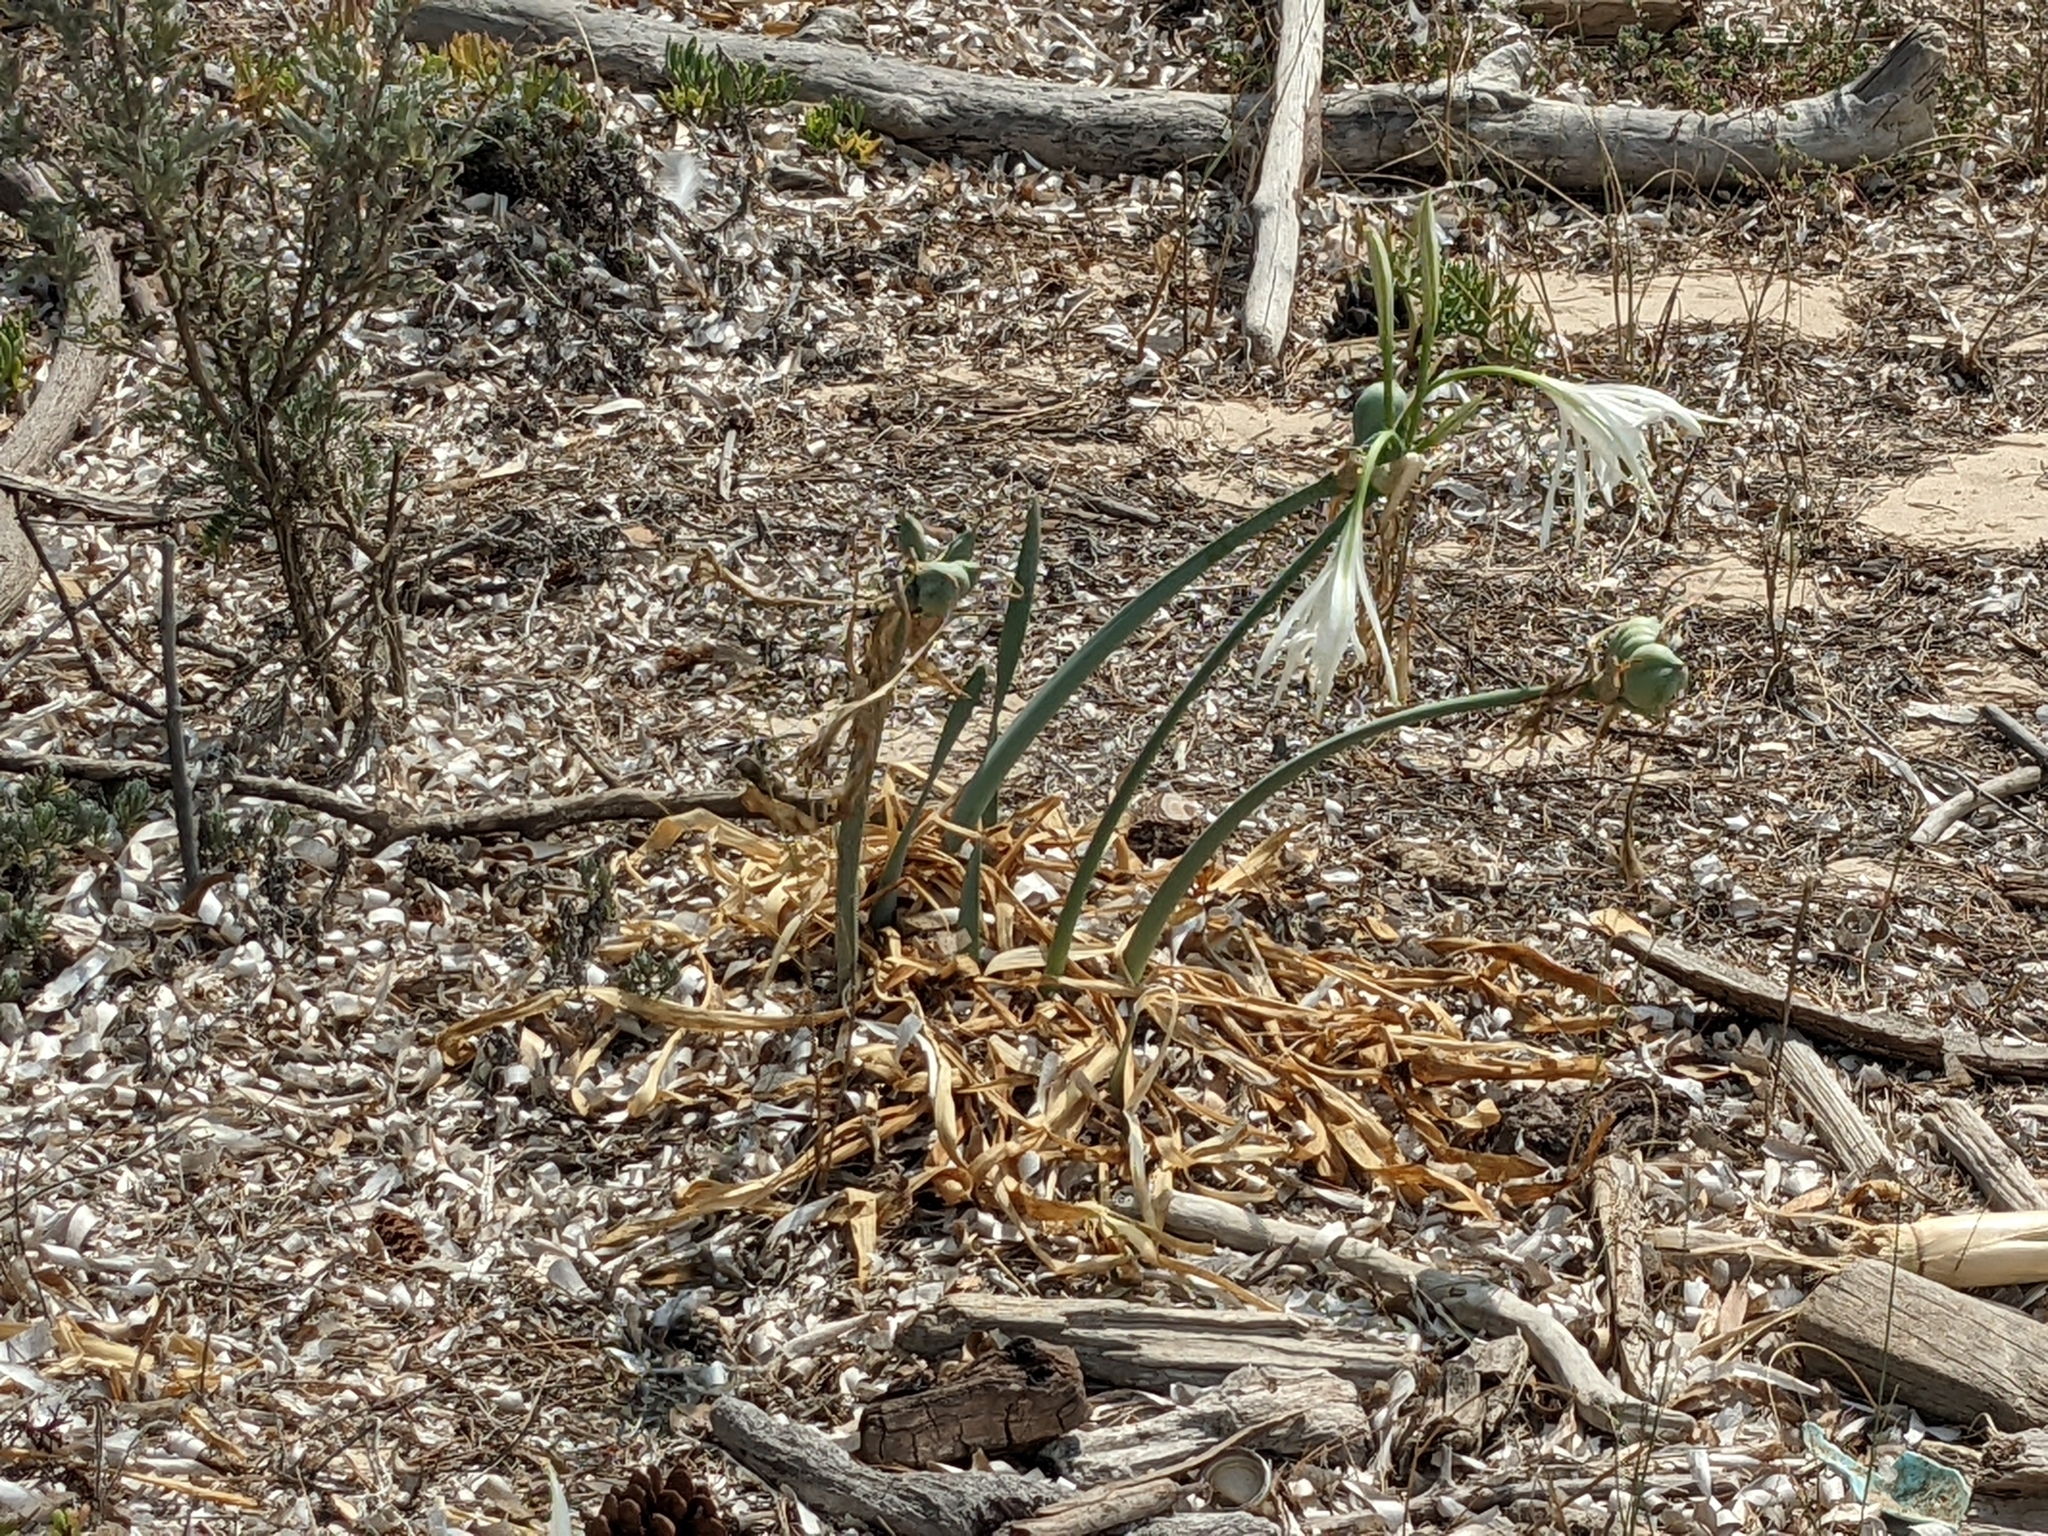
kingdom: Plantae
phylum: Tracheophyta
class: Liliopsida
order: Asparagales
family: Amaryllidaceae
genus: Pancratium
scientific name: Pancratium maritimum
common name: Sea-daffodil
